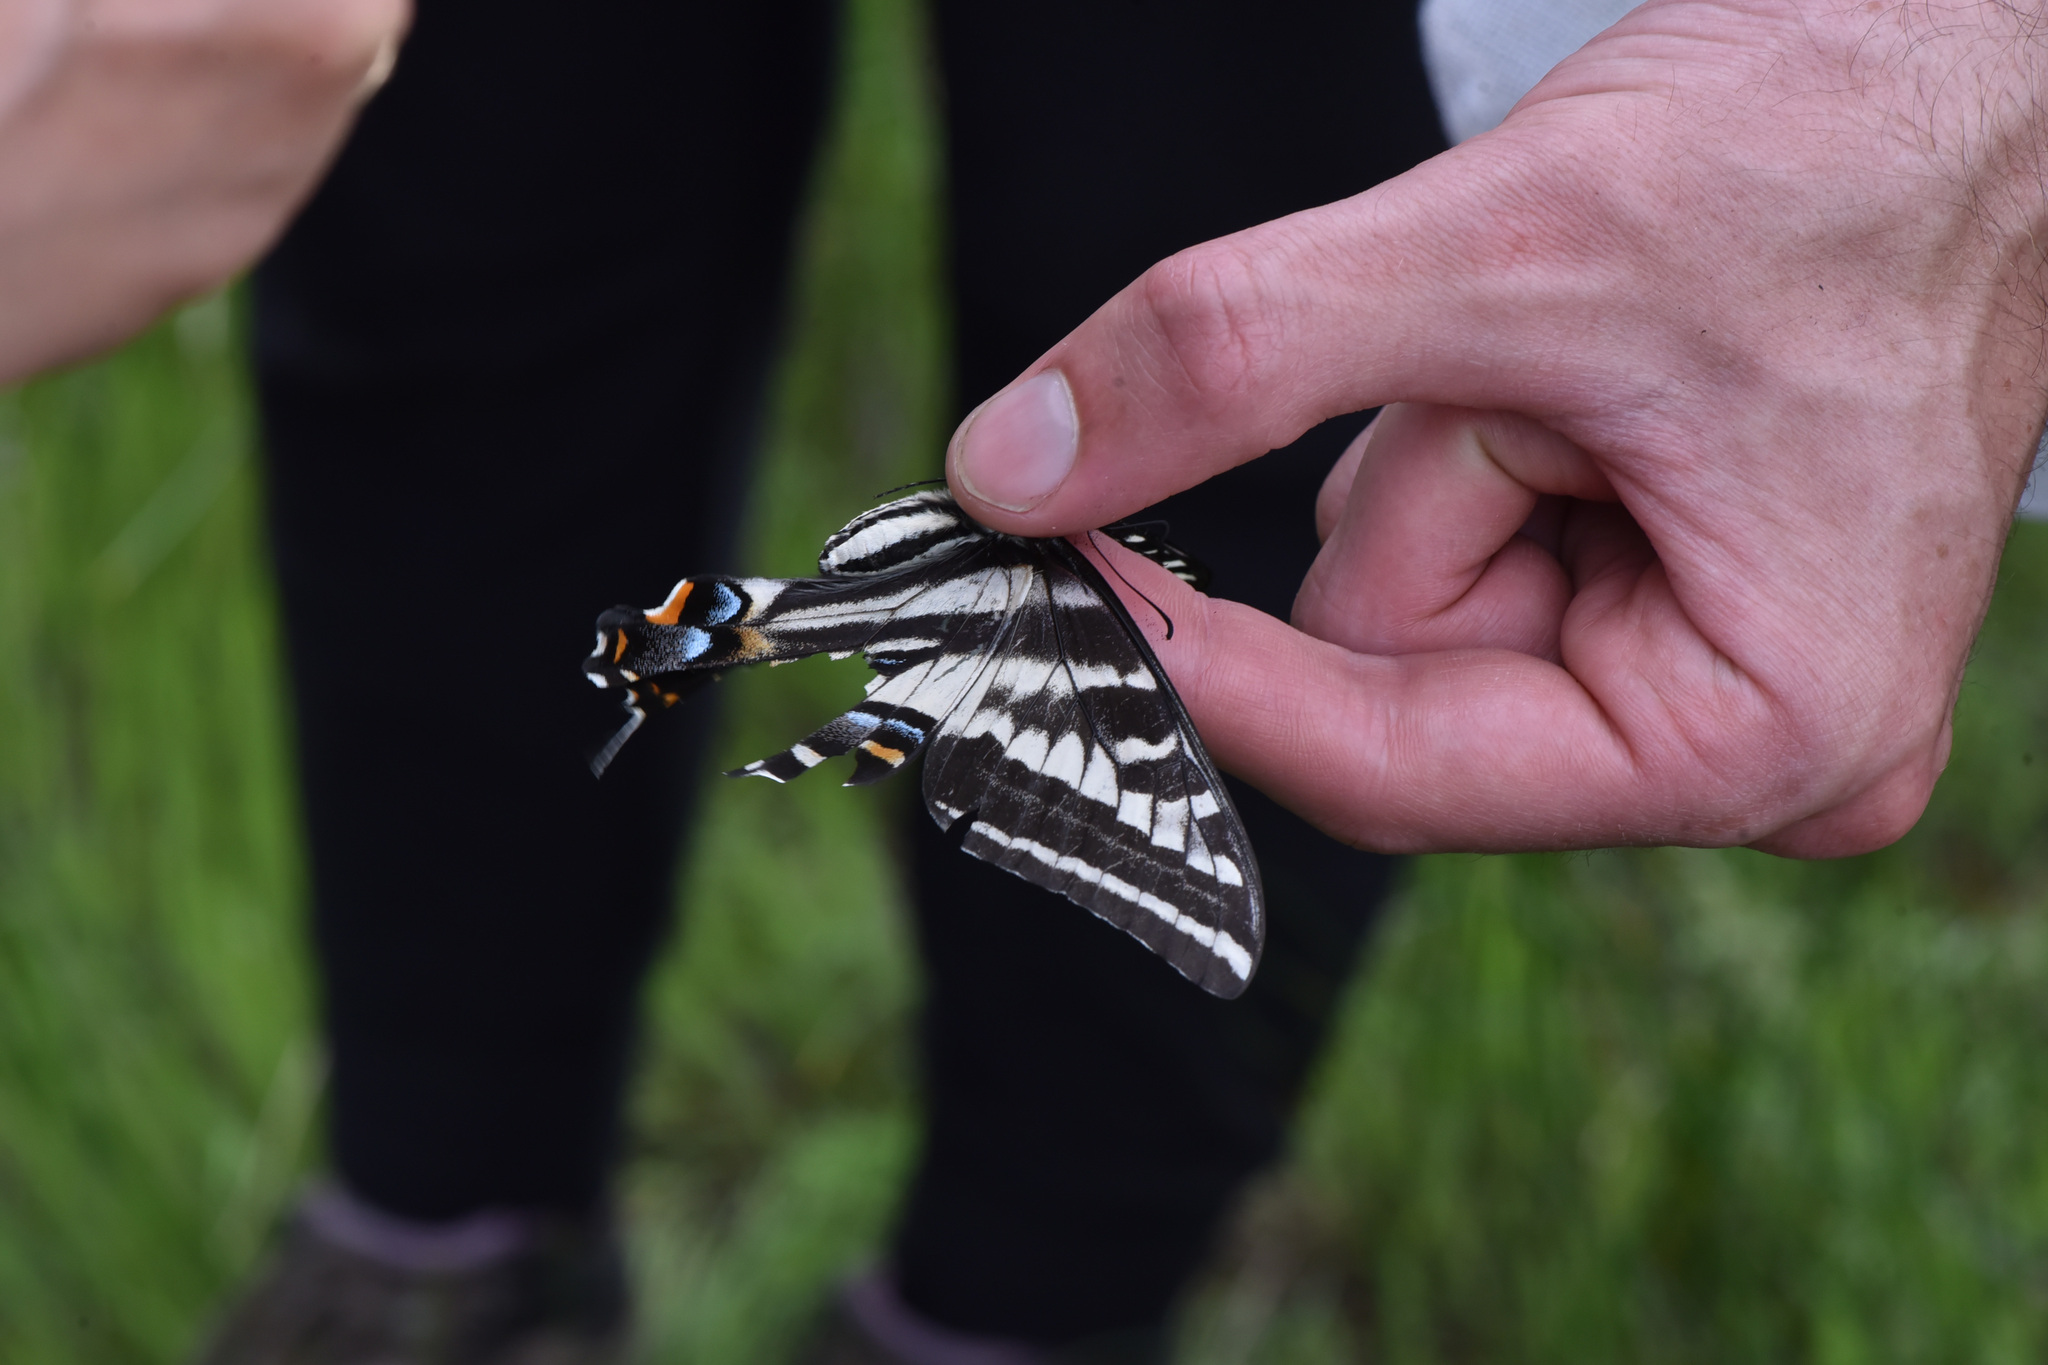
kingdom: Animalia
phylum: Arthropoda
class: Insecta
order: Lepidoptera
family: Papilionidae
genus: Papilio
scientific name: Papilio eurymedon
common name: Pale tiger swallowtail
